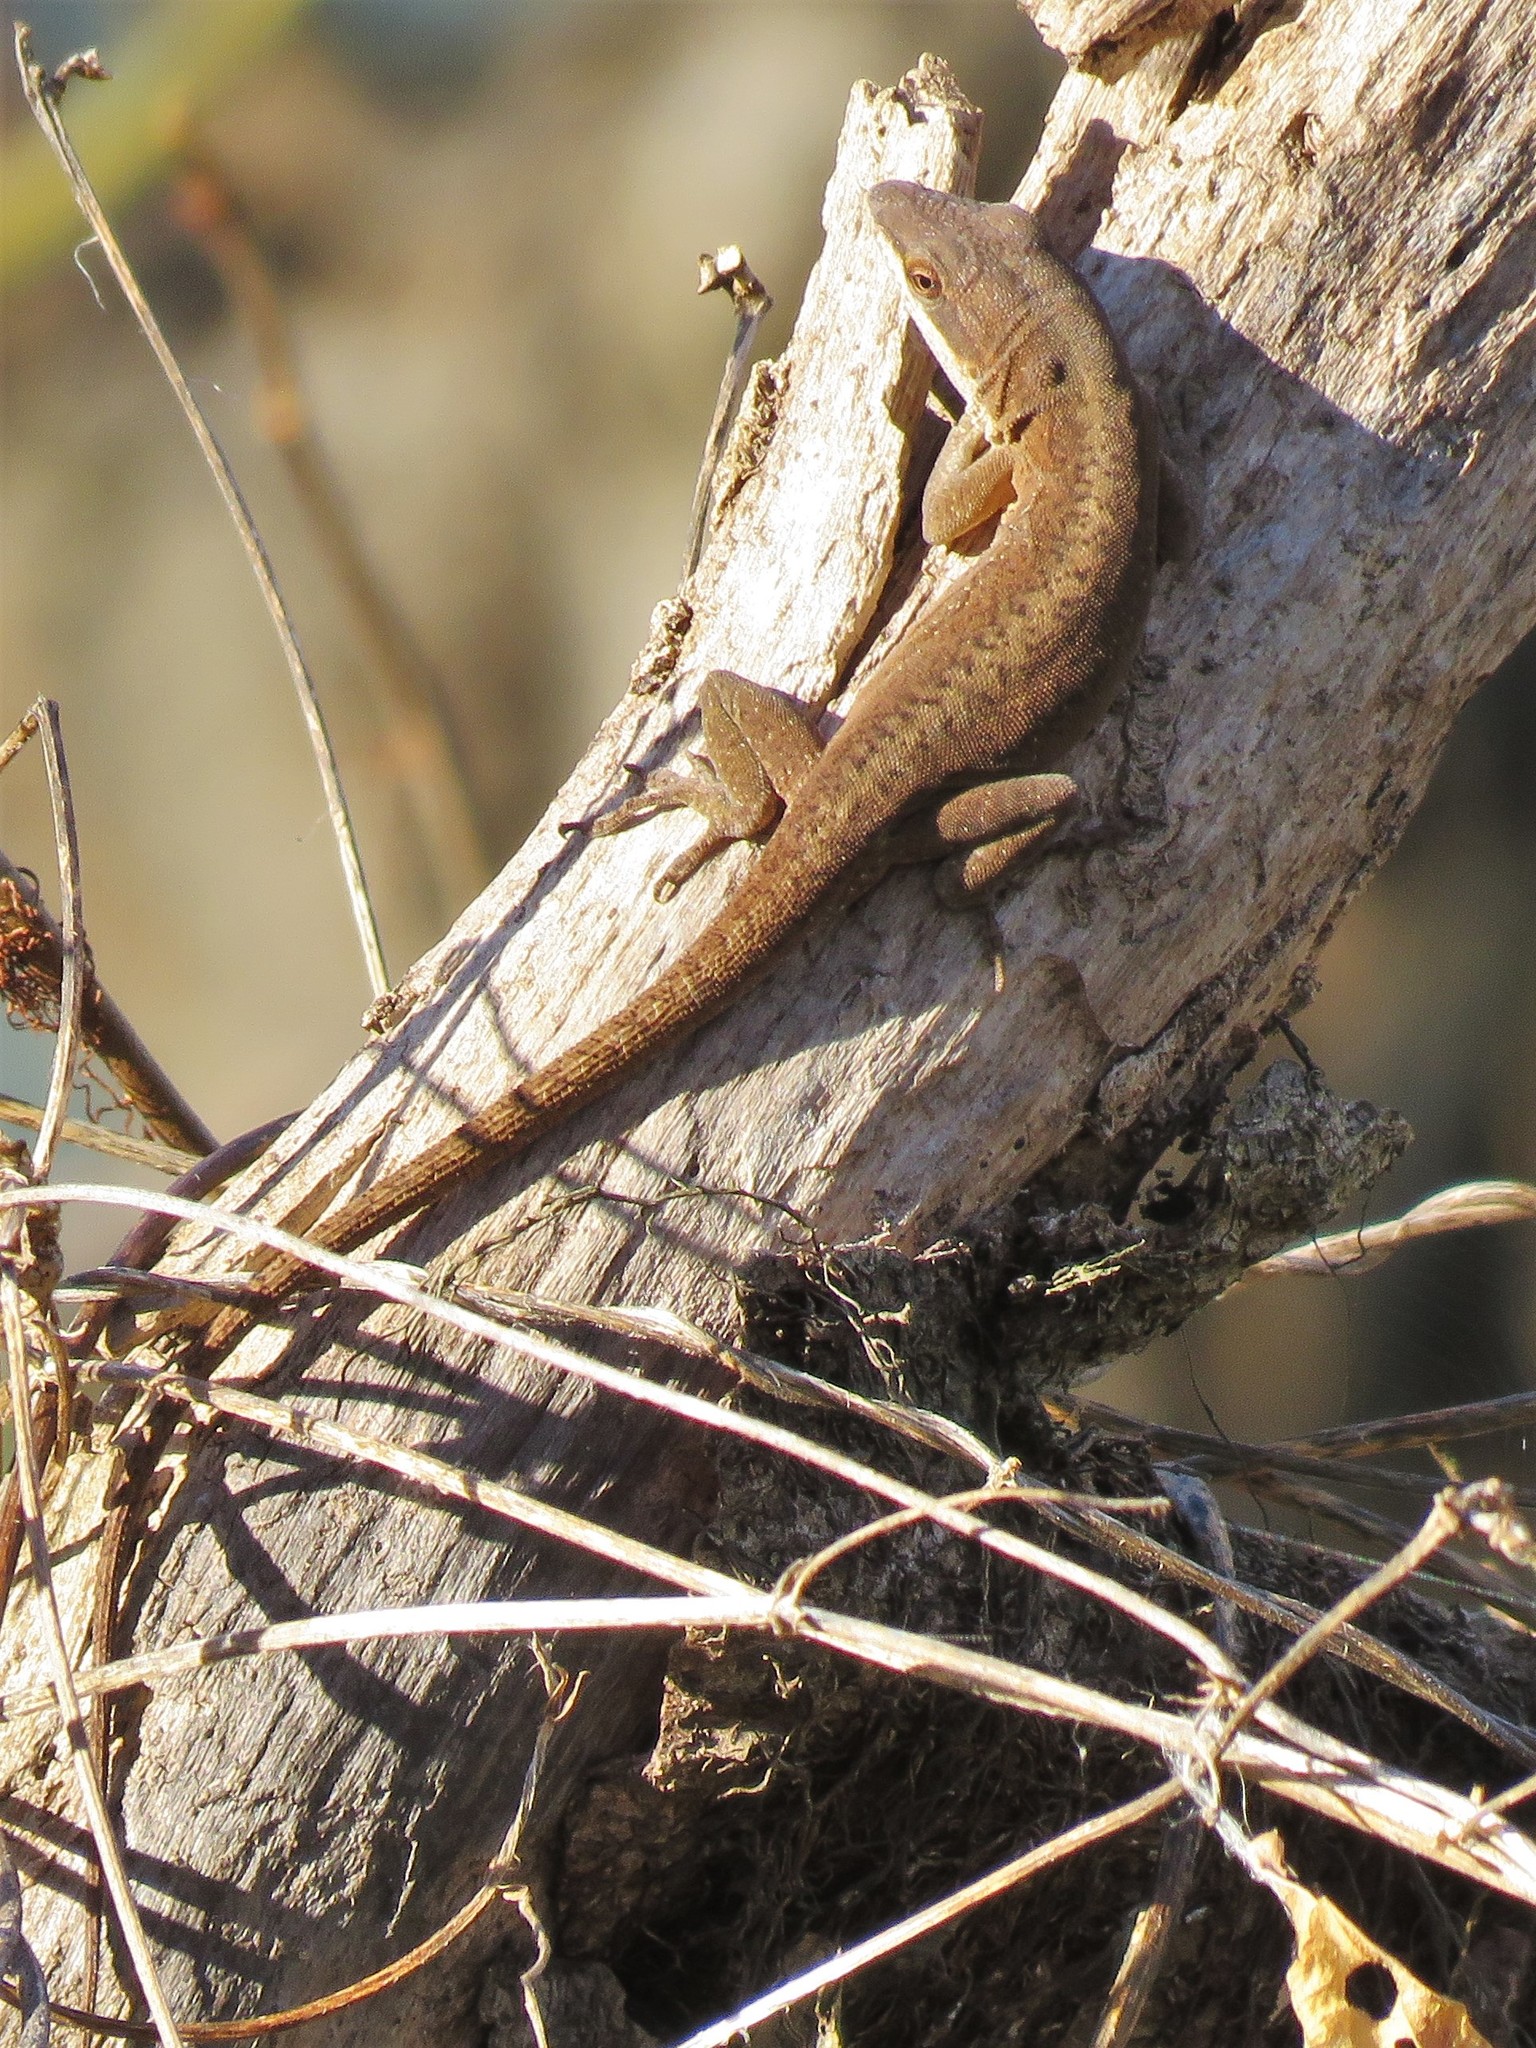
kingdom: Animalia
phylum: Chordata
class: Squamata
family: Dactyloidae
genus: Anolis
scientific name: Anolis carolinensis
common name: Green anole
